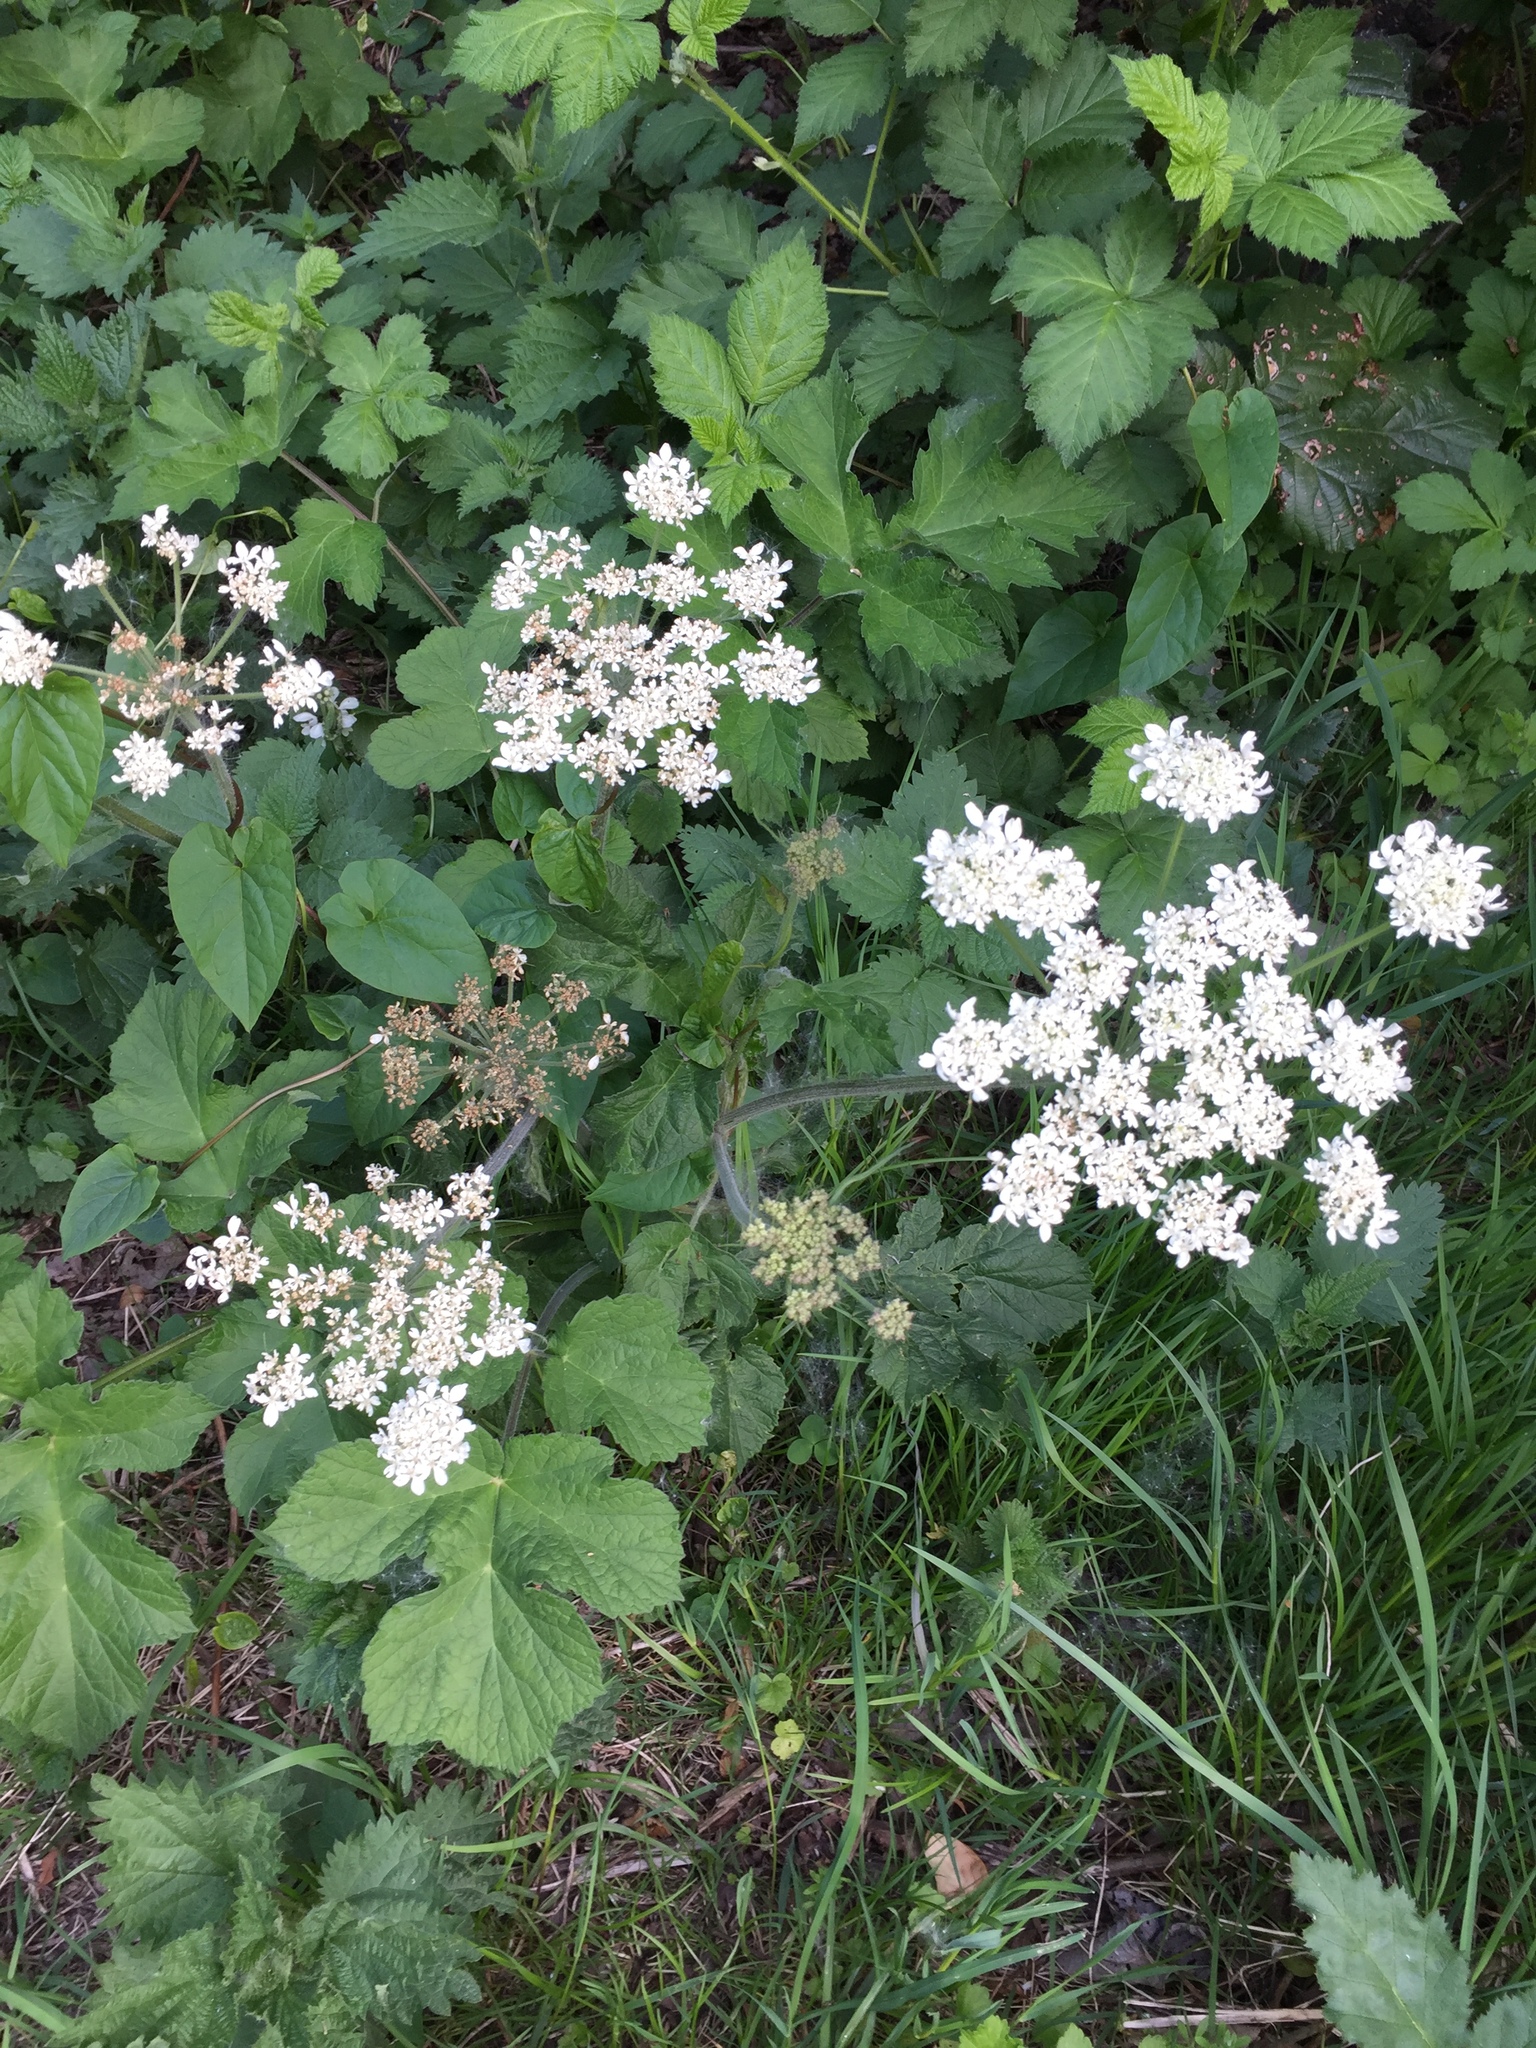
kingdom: Plantae
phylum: Tracheophyta
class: Magnoliopsida
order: Apiales
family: Apiaceae
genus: Heracleum
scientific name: Heracleum sphondylium
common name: Hogweed
